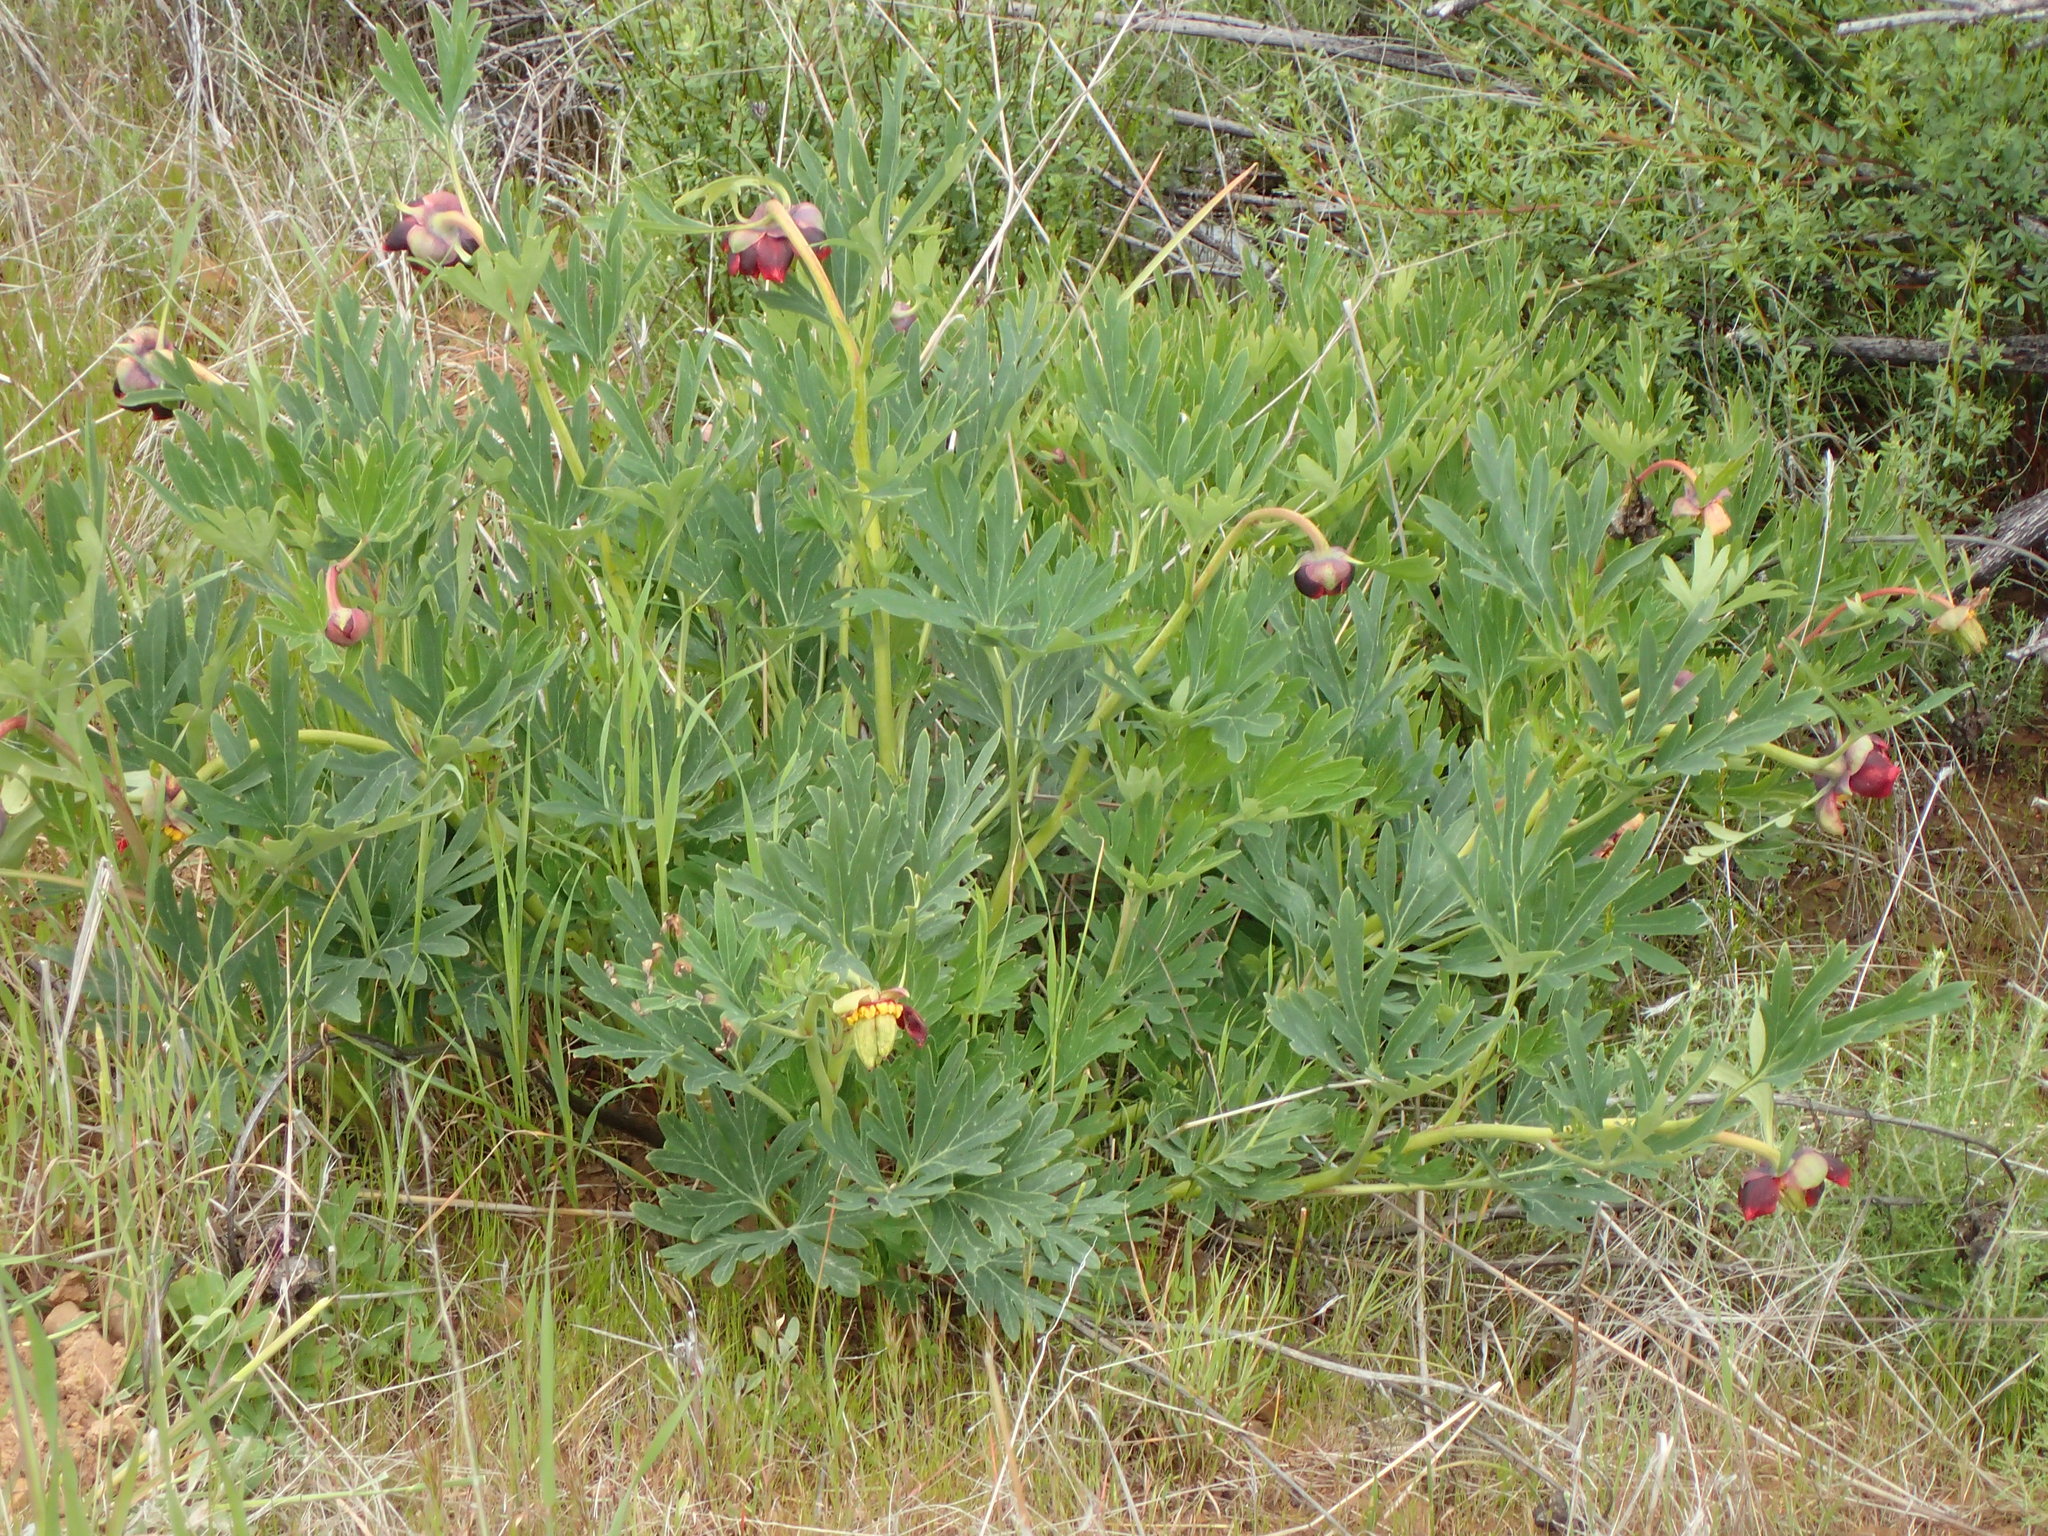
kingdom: Plantae
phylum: Tracheophyta
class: Magnoliopsida
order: Saxifragales
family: Paeoniaceae
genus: Paeonia
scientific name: Paeonia californica
